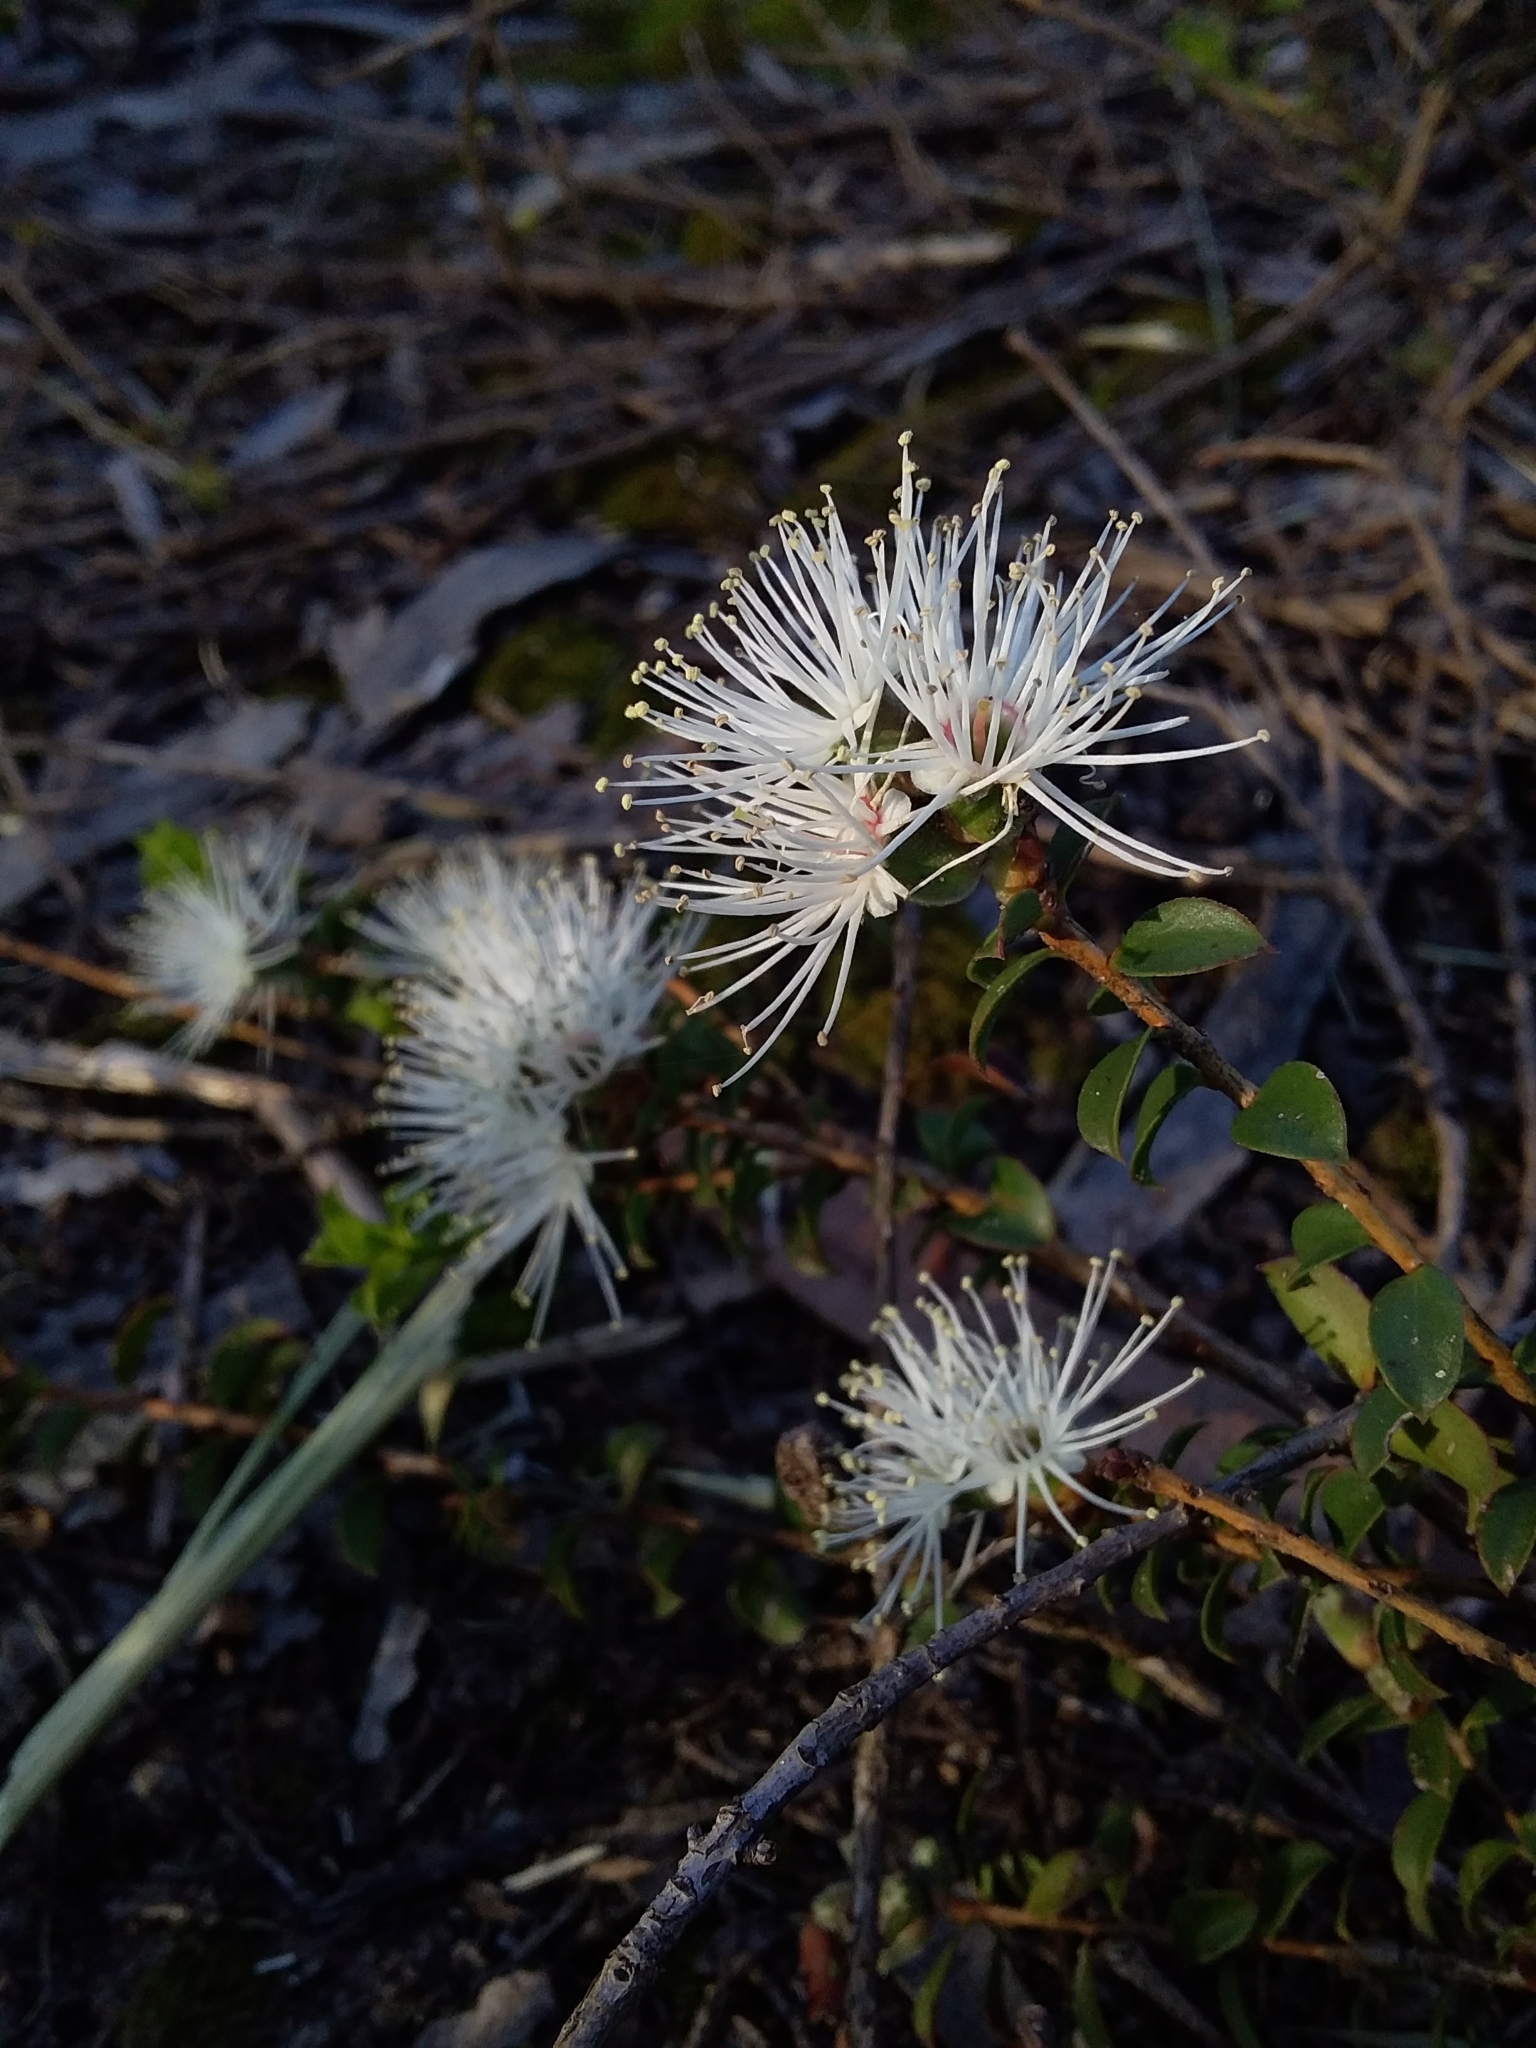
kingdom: Plantae
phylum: Tracheophyta
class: Magnoliopsida
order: Myrtales
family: Myrtaceae
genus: Kunzea
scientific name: Kunzea pomifera
